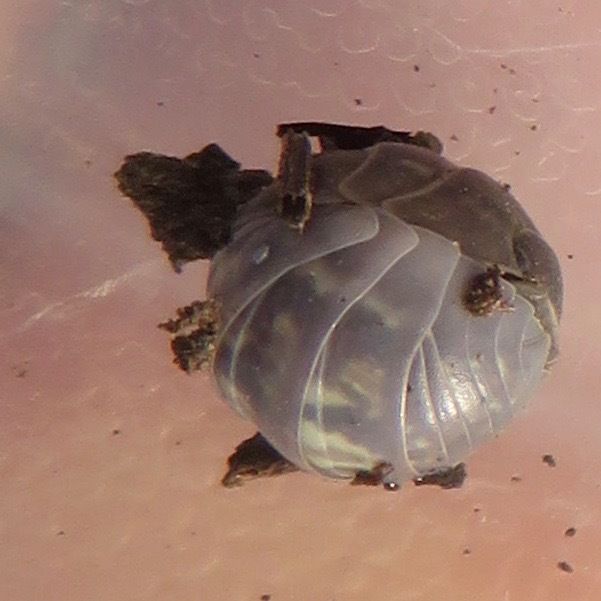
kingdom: Animalia
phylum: Arthropoda
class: Malacostraca
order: Isopoda
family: Armadillidiidae
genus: Armadillidium
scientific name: Armadillidium vulgare
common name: Common pill woodlouse
